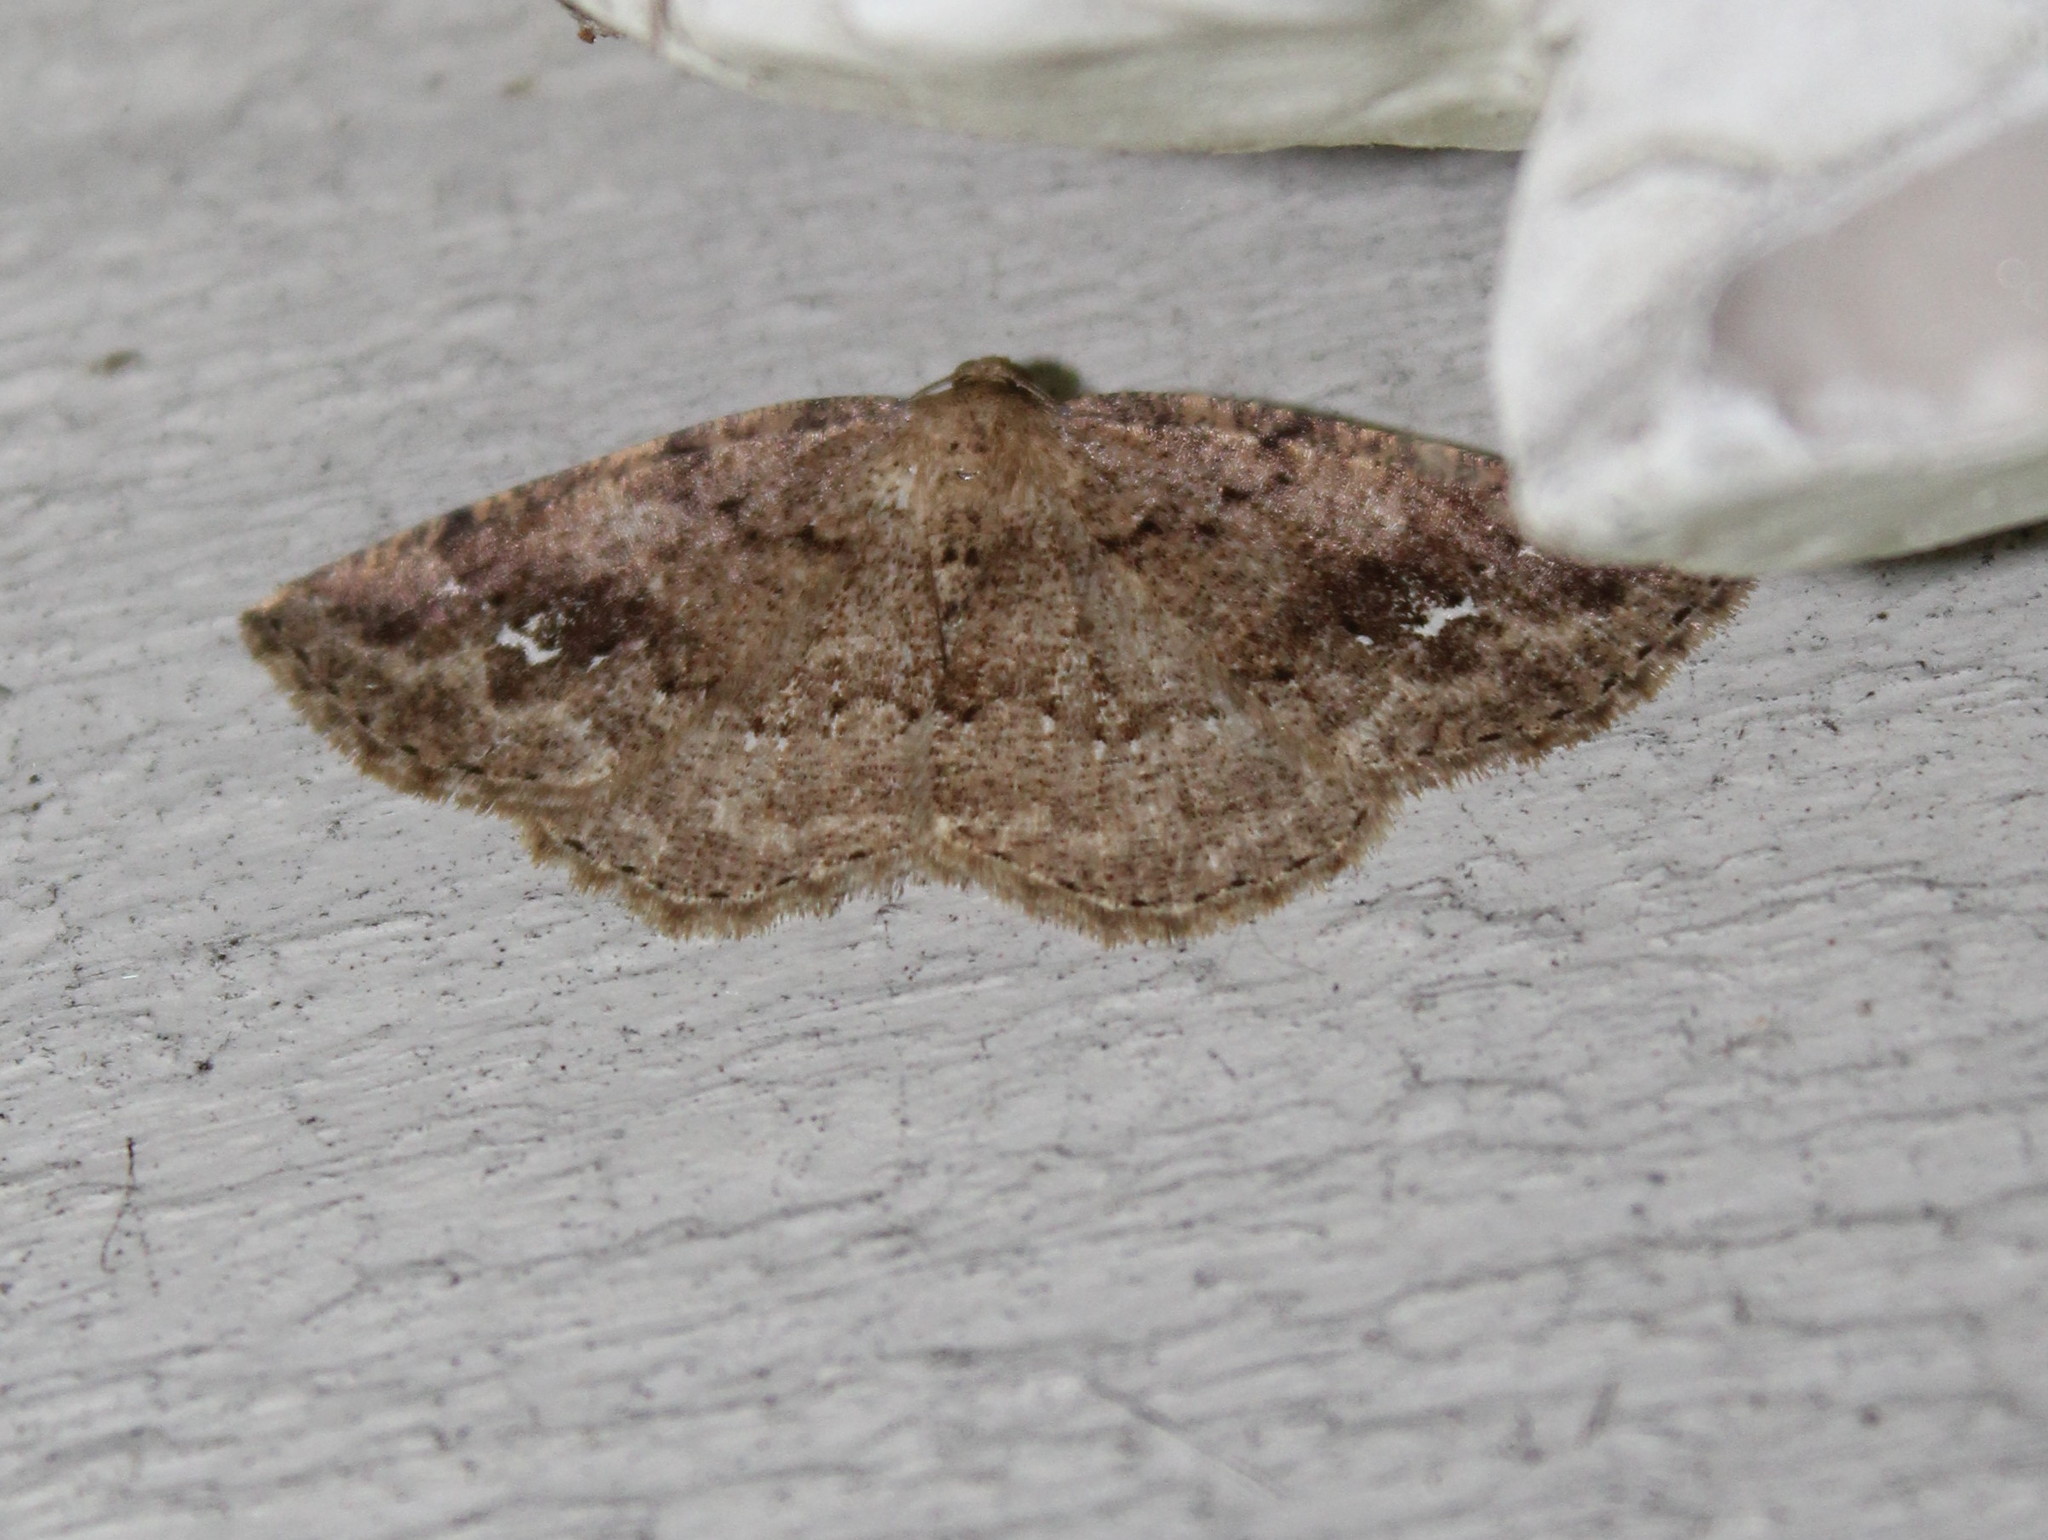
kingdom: Animalia
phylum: Arthropoda
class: Insecta
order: Lepidoptera
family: Geometridae
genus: Homochlodes
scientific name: Homochlodes fritillaria
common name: Pale homochlodes
